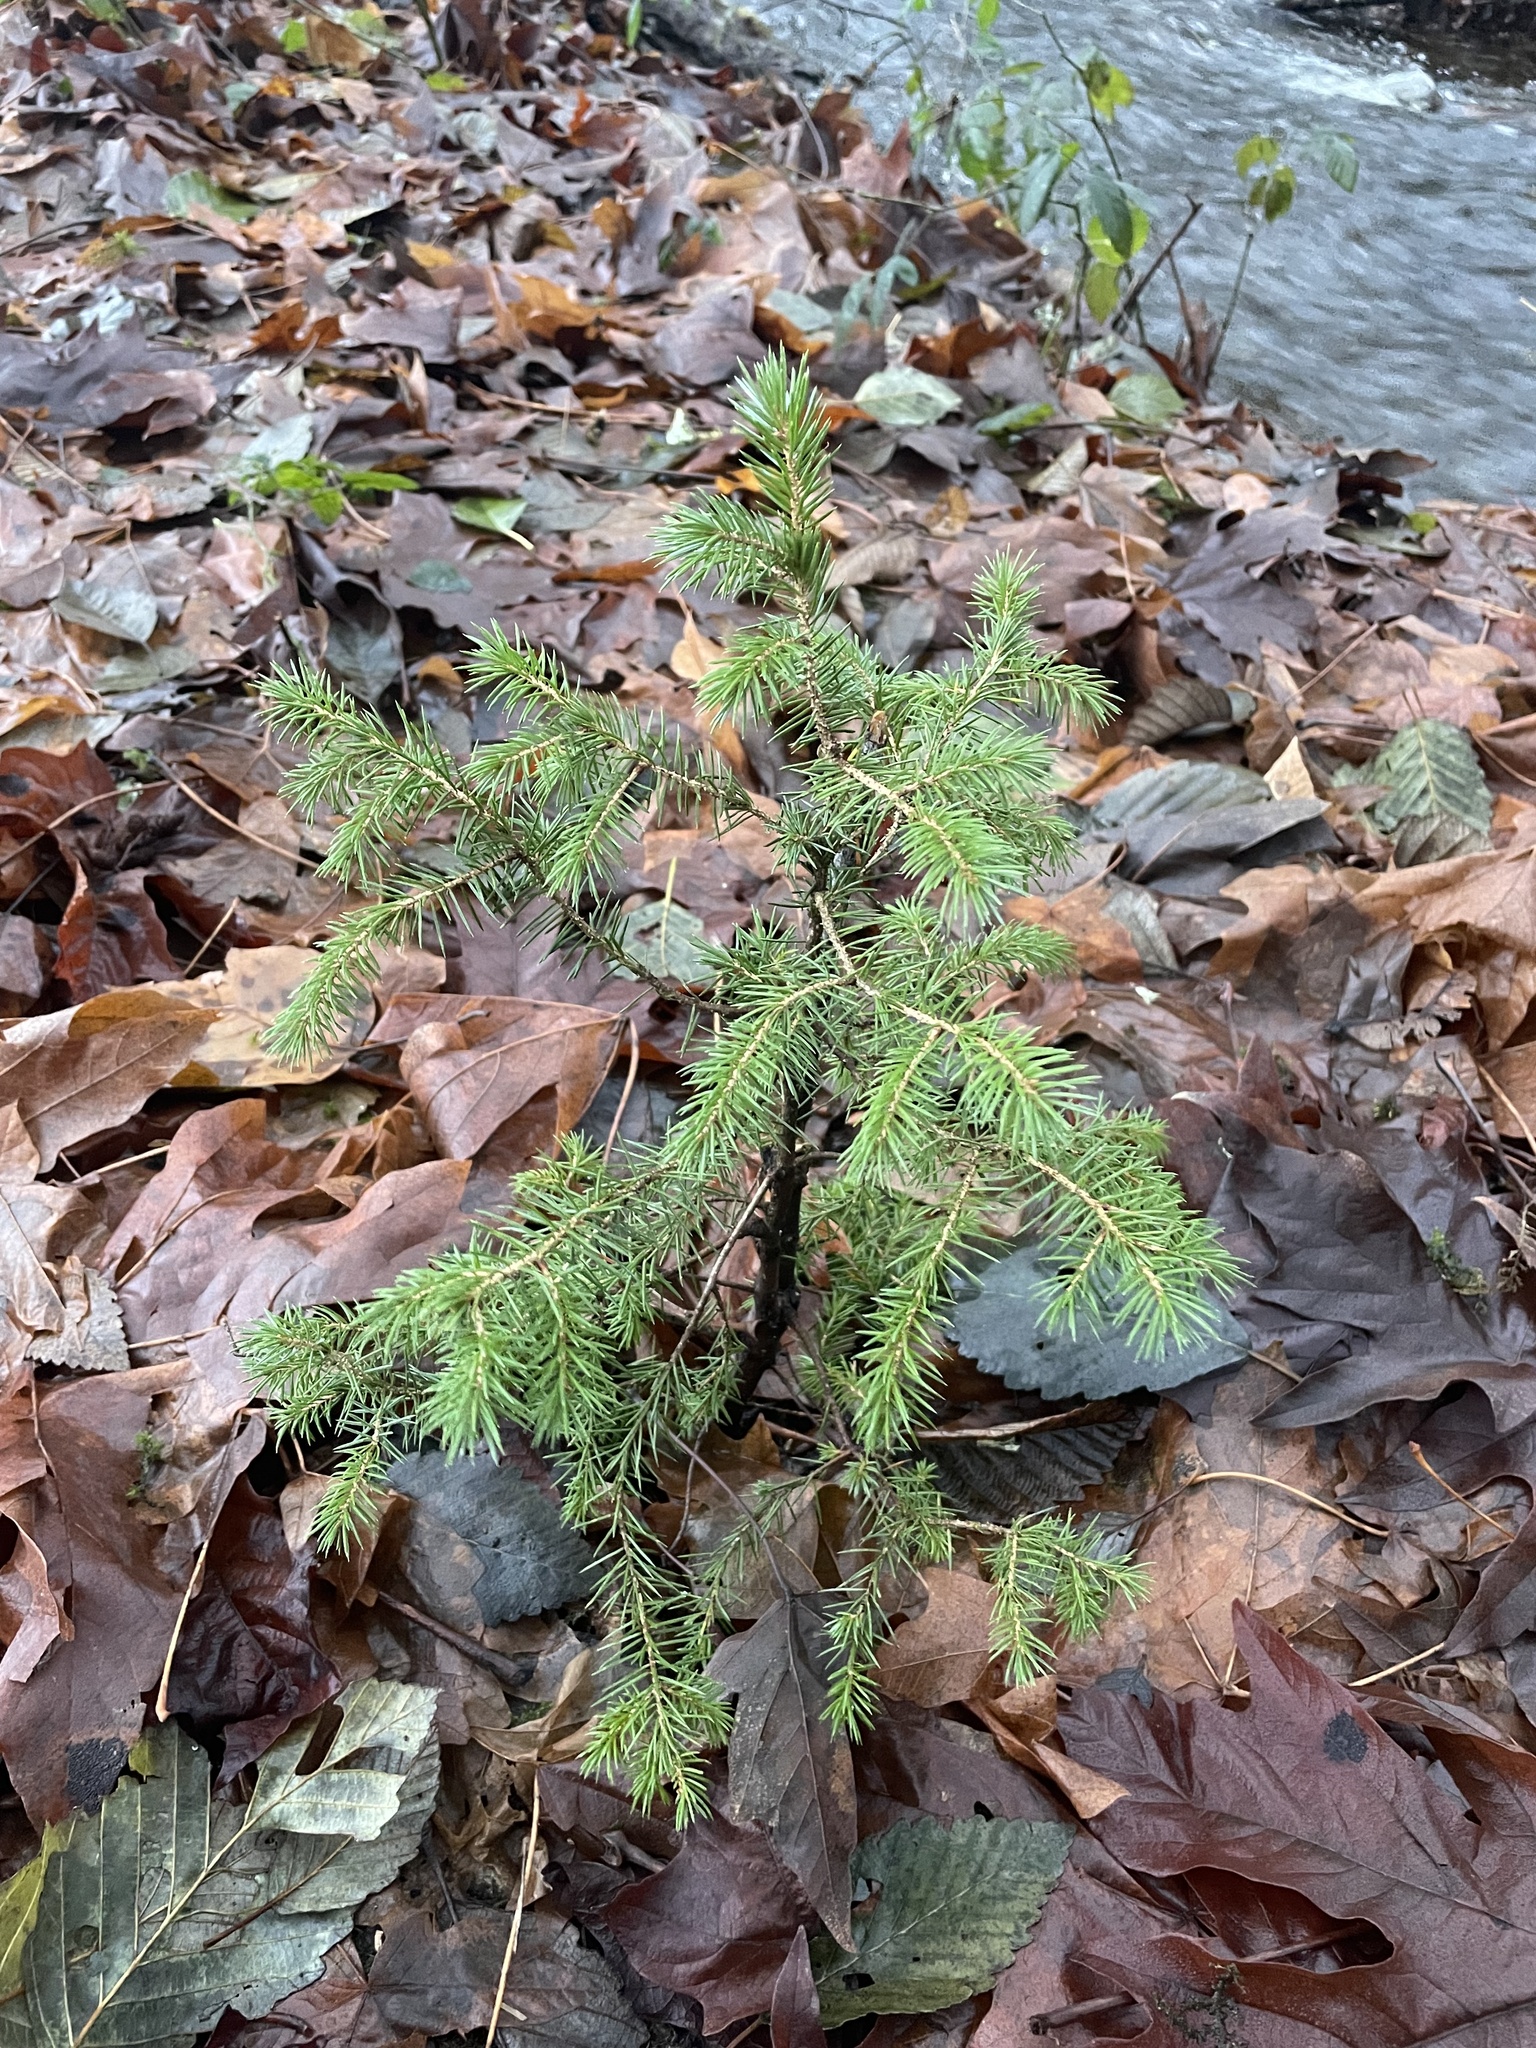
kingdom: Plantae
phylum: Tracheophyta
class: Pinopsida
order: Pinales
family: Pinaceae
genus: Picea
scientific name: Picea sitchensis
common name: Sitka spruce
